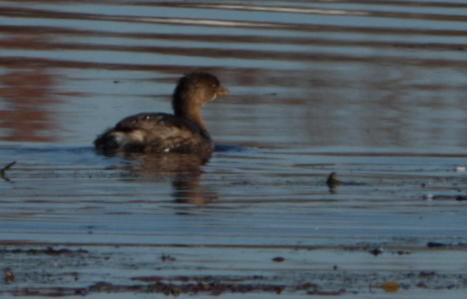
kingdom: Animalia
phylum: Chordata
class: Aves
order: Podicipediformes
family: Podicipedidae
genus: Podilymbus
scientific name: Podilymbus podiceps
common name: Pied-billed grebe
